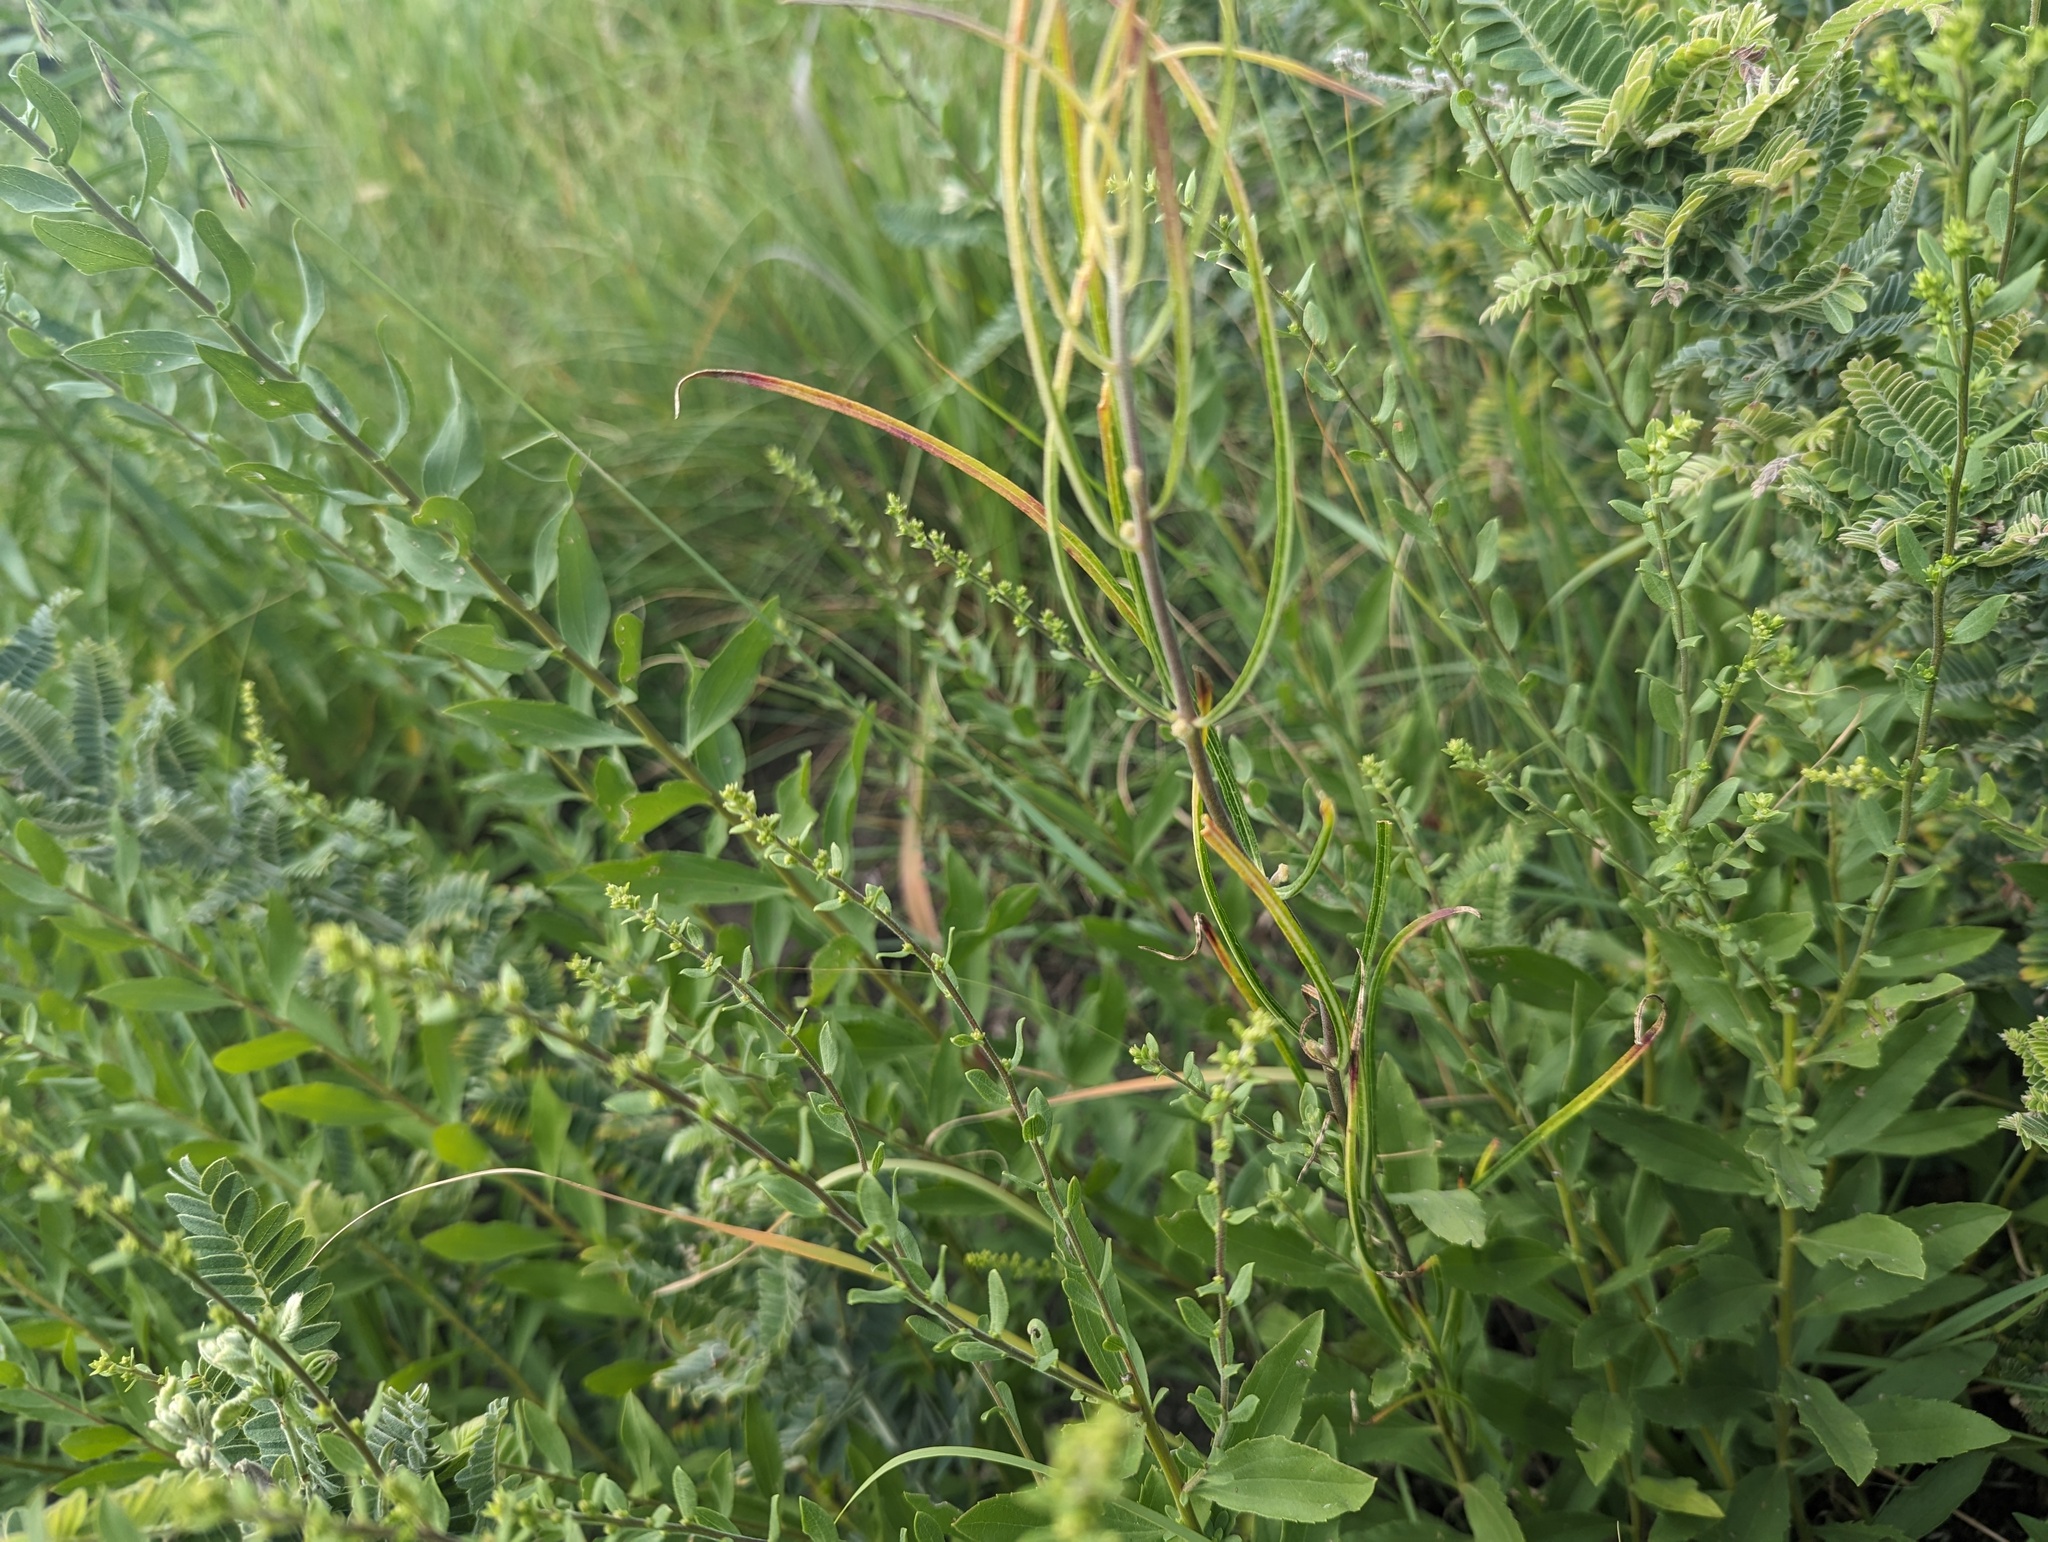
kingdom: Plantae
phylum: Tracheophyta
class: Magnoliopsida
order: Gentianales
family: Apocynaceae
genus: Asclepias
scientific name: Asclepias stenophylla
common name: Narrow-leaf milkweed
